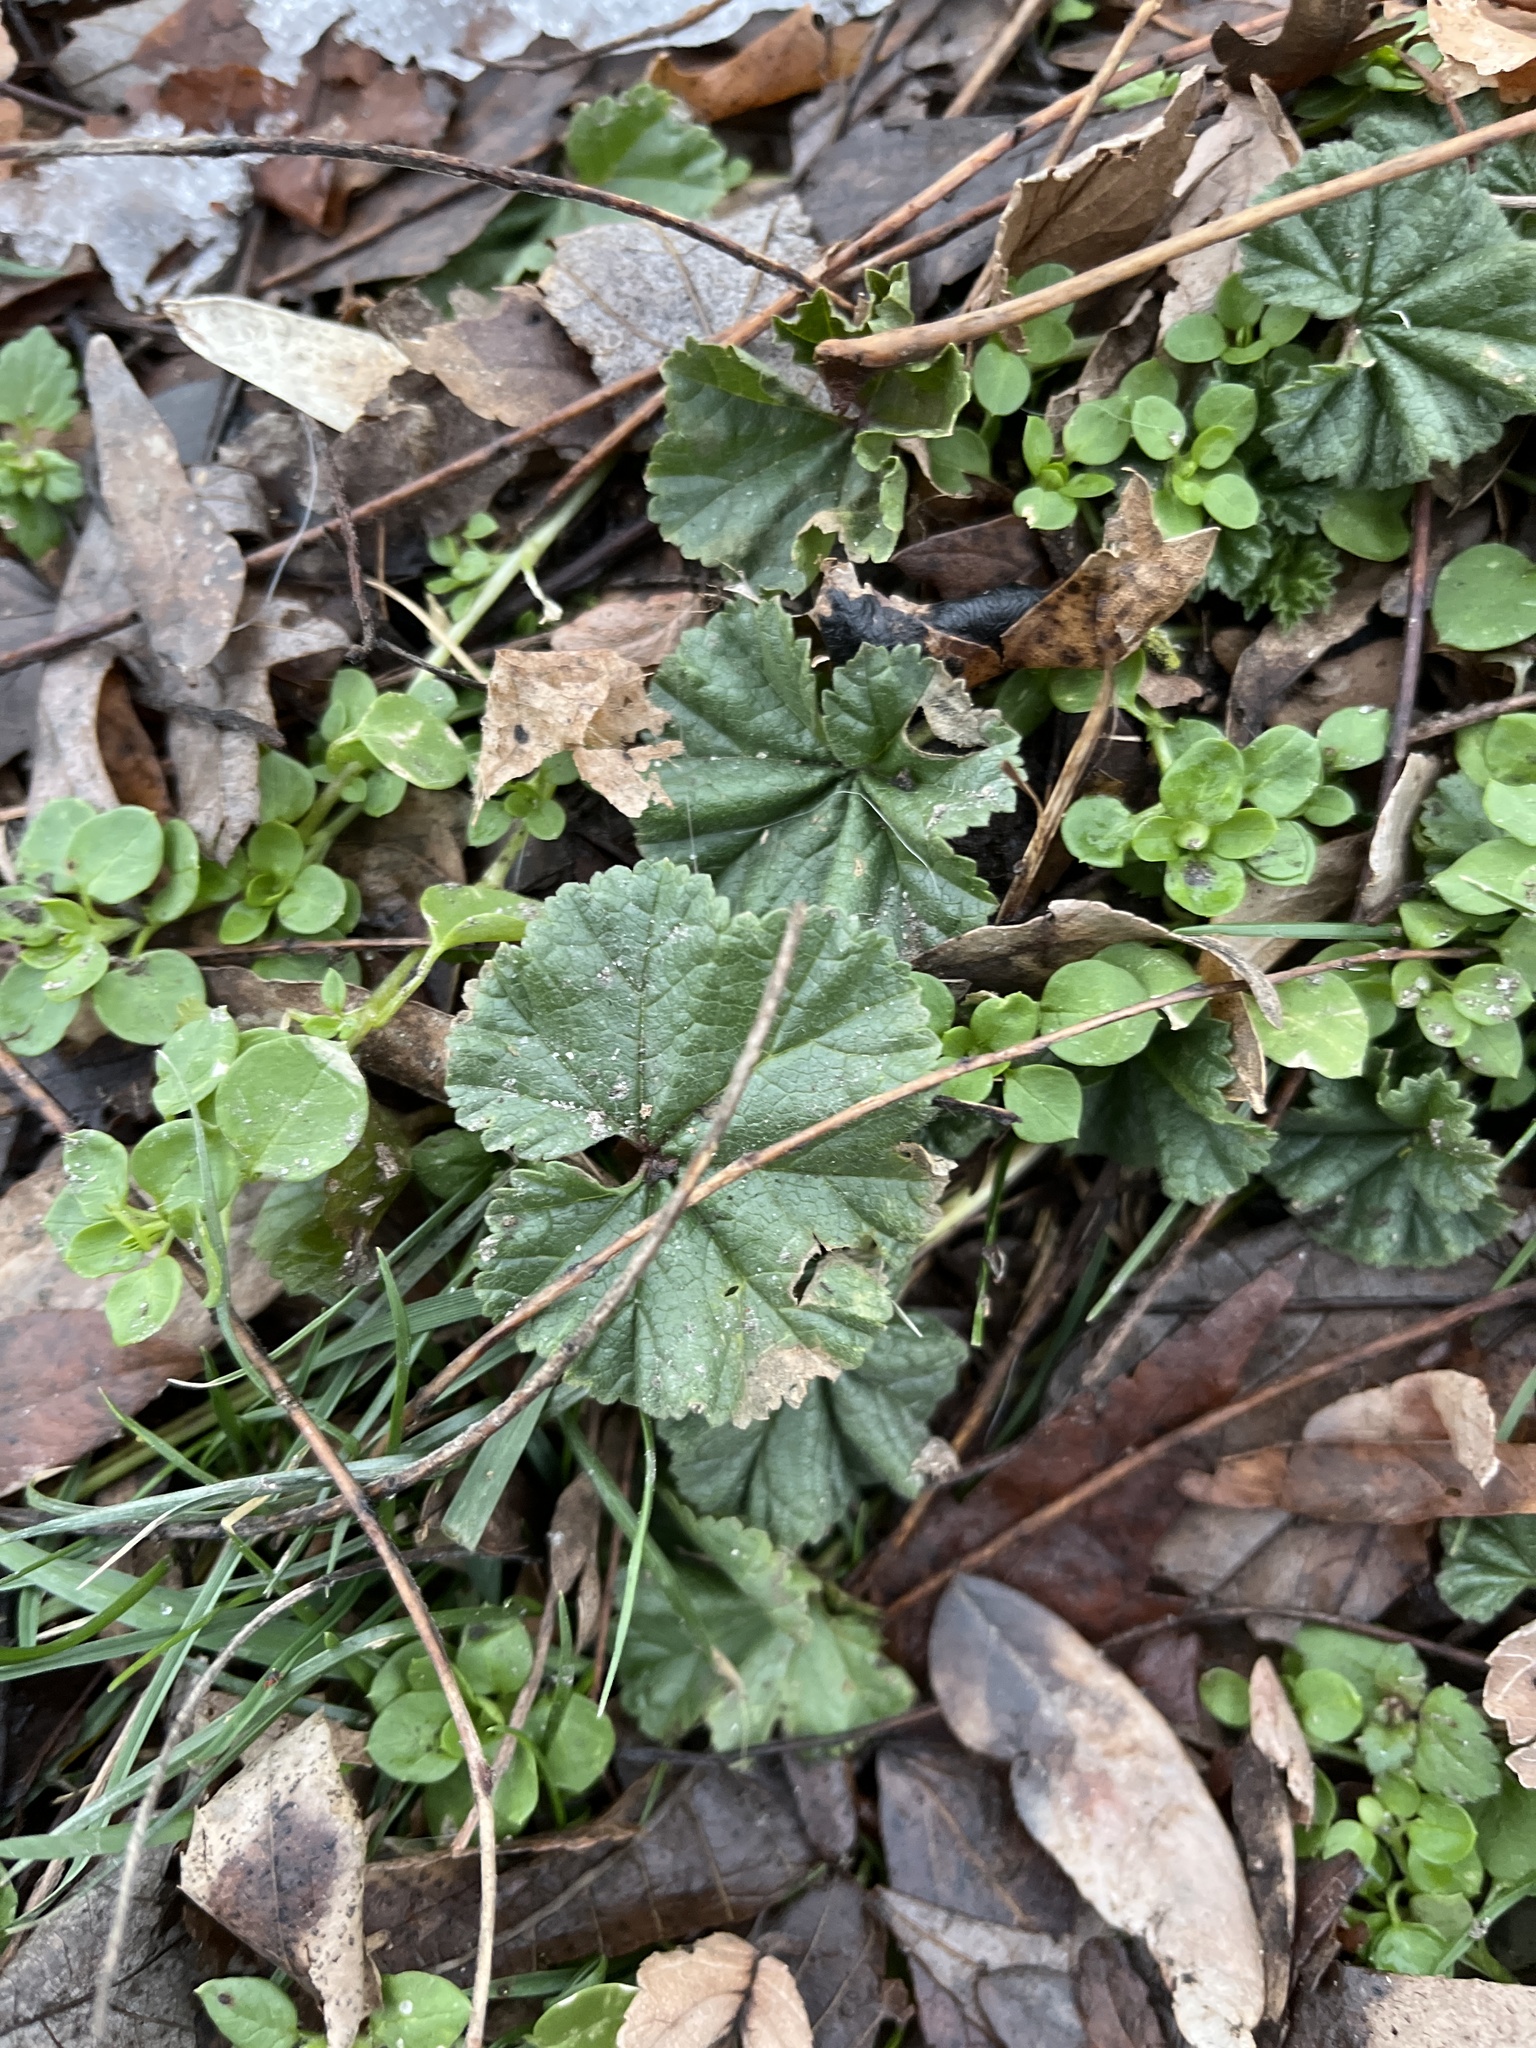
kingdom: Plantae
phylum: Tracheophyta
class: Magnoliopsida
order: Malvales
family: Malvaceae
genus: Malva
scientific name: Malva neglecta
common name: Common mallow
